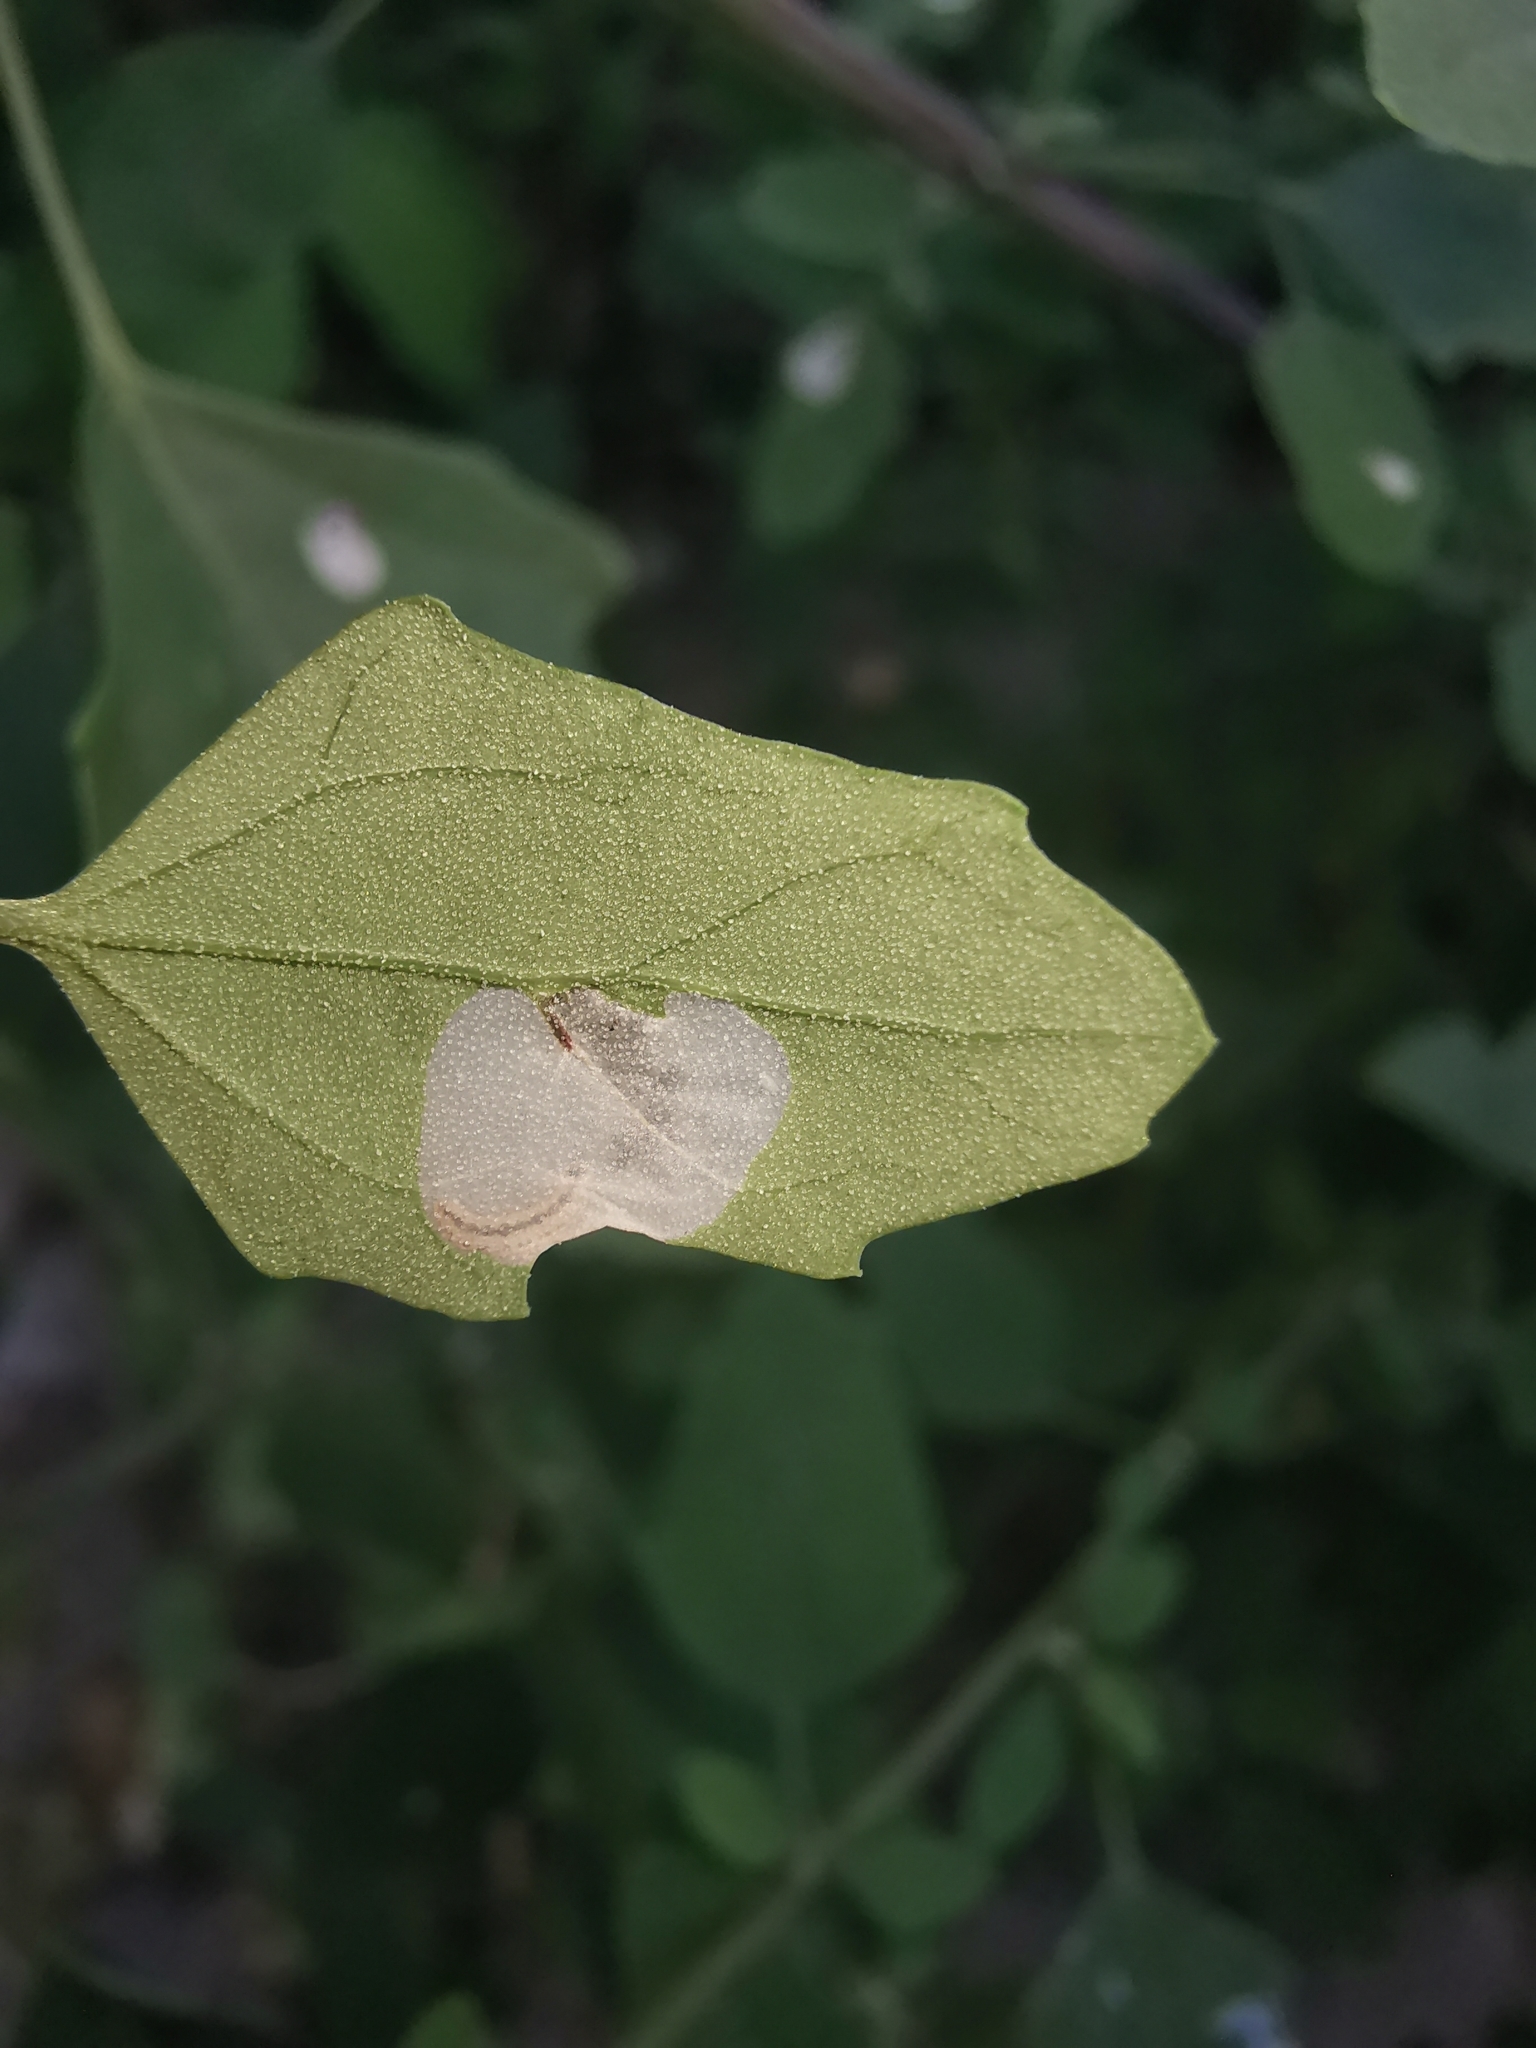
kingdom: Animalia
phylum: Arthropoda
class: Insecta
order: Lepidoptera
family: Gelechiidae
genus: Chrysoesthia
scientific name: Chrysoesthia sexguttella
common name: Moth
